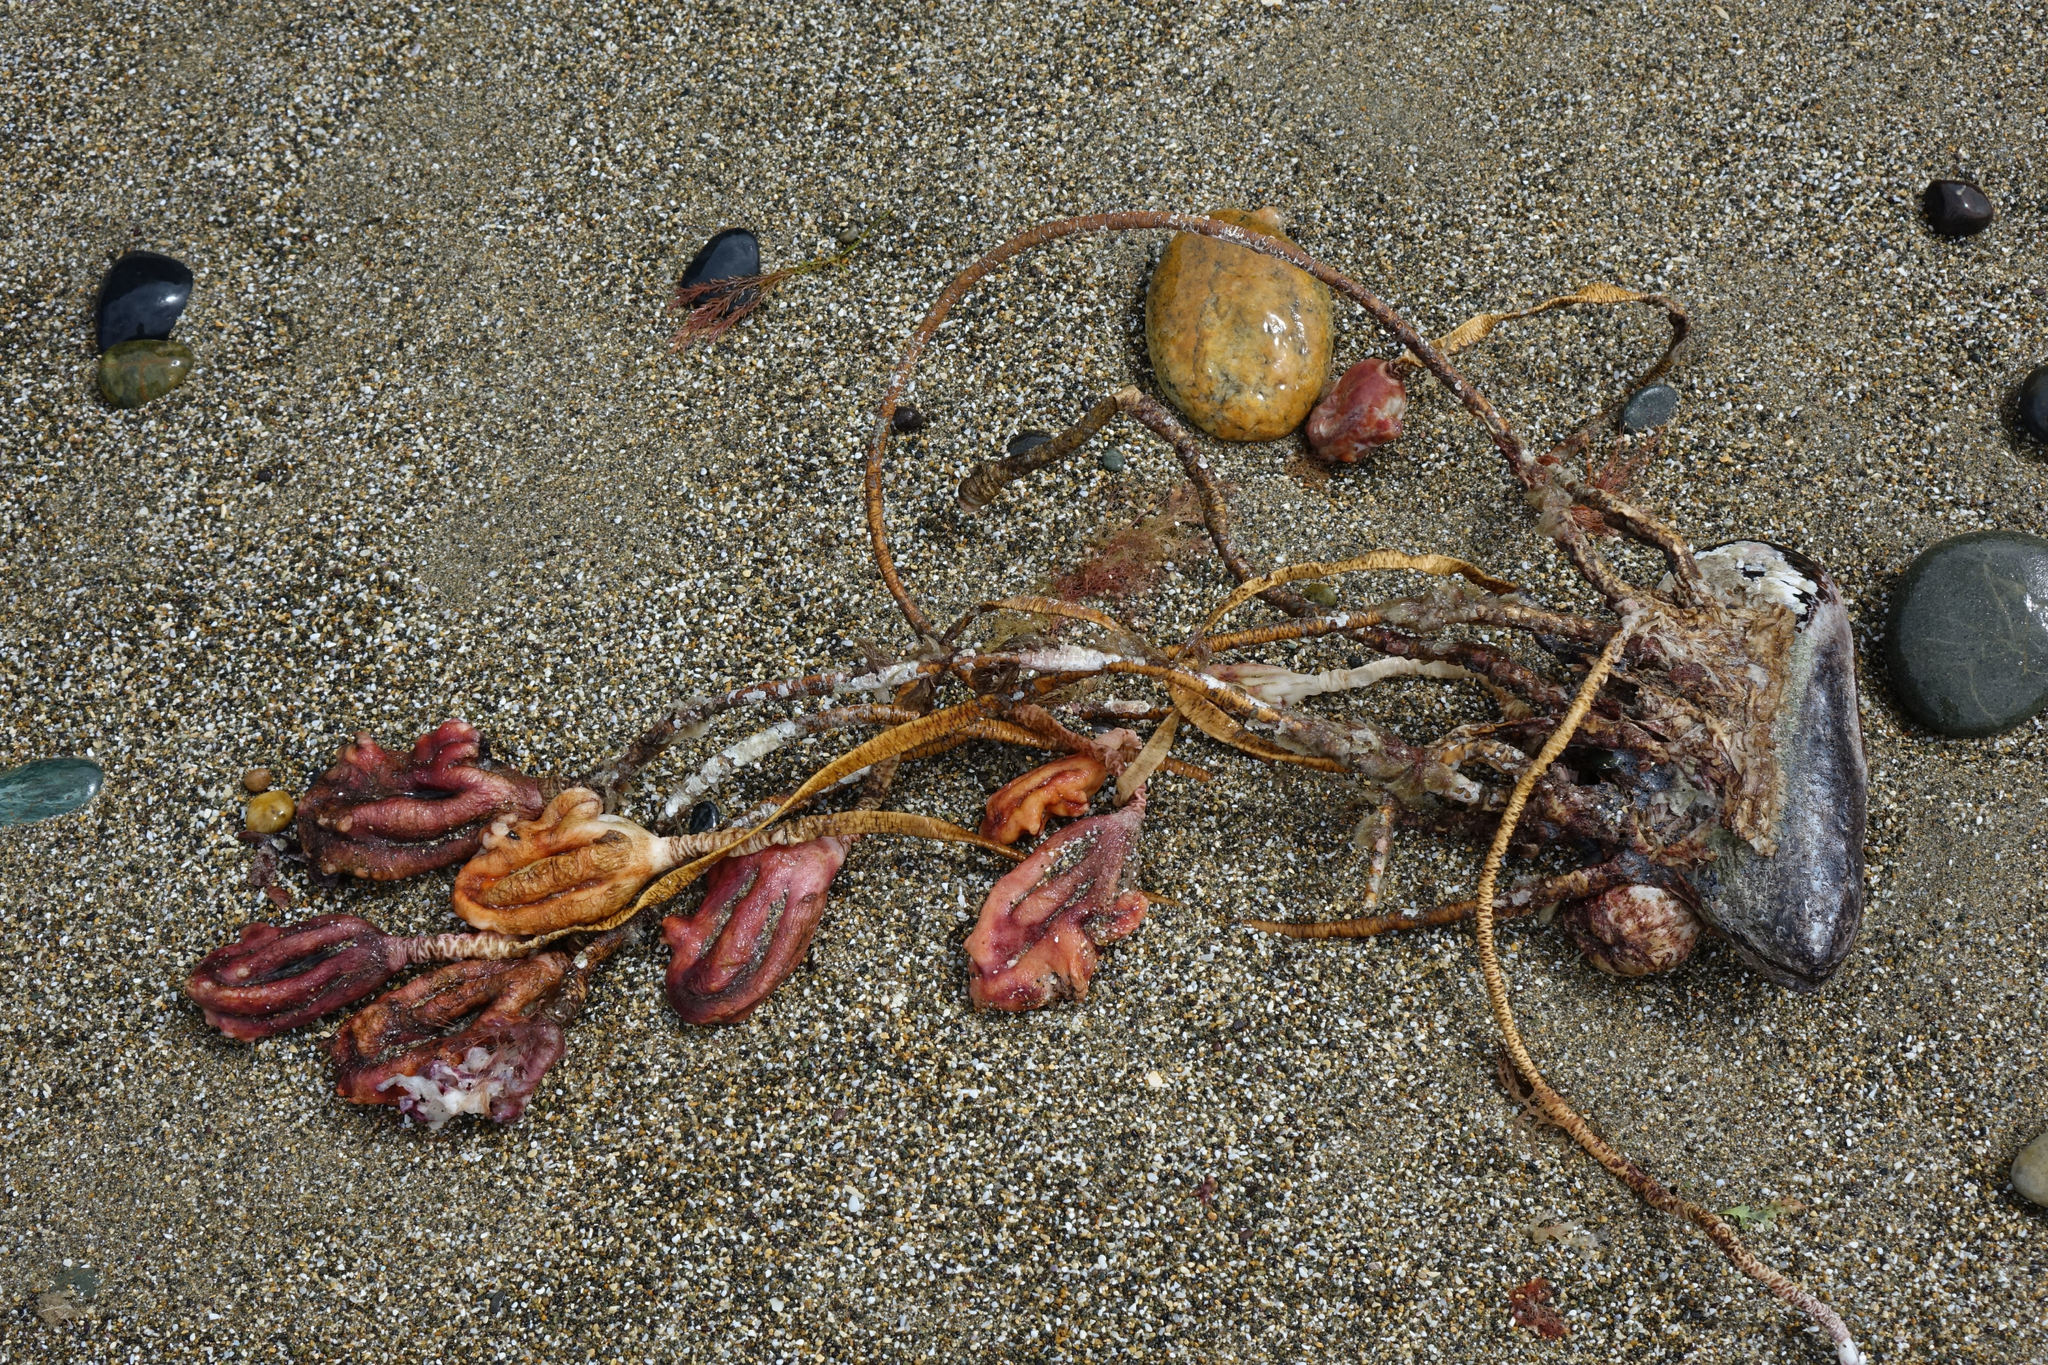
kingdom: Animalia
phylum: Chordata
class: Ascidiacea
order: Stolidobranchia
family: Pyuridae
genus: Pyura
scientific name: Pyura pachydermatina
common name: Sea tulip
